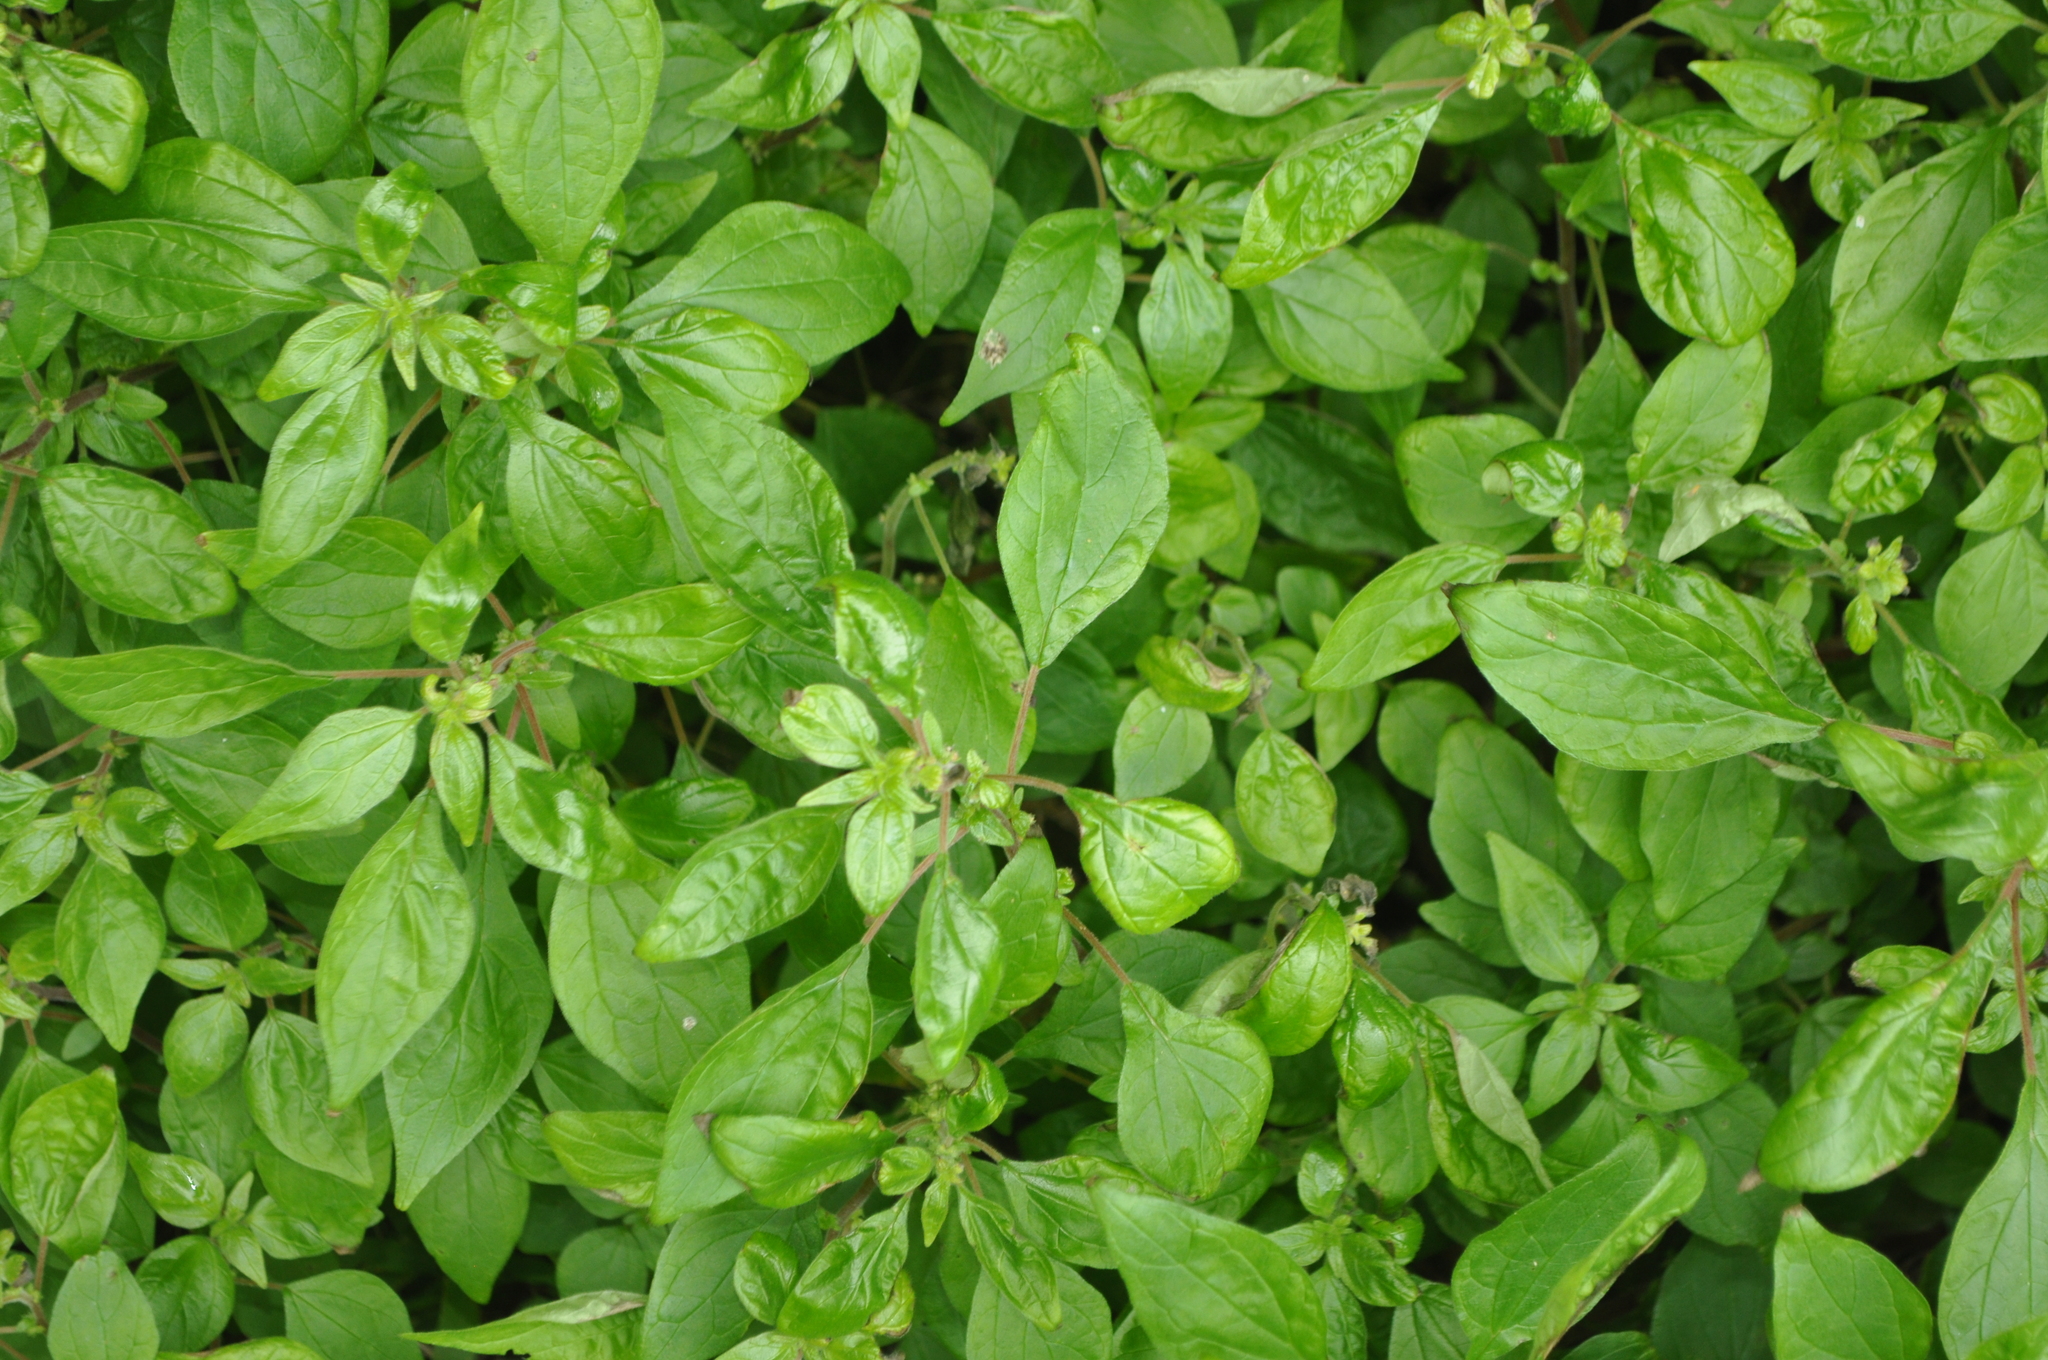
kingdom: Plantae
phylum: Tracheophyta
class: Magnoliopsida
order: Rosales
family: Urticaceae
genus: Parietaria
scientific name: Parietaria judaica
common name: Pellitory-of-the-wall
